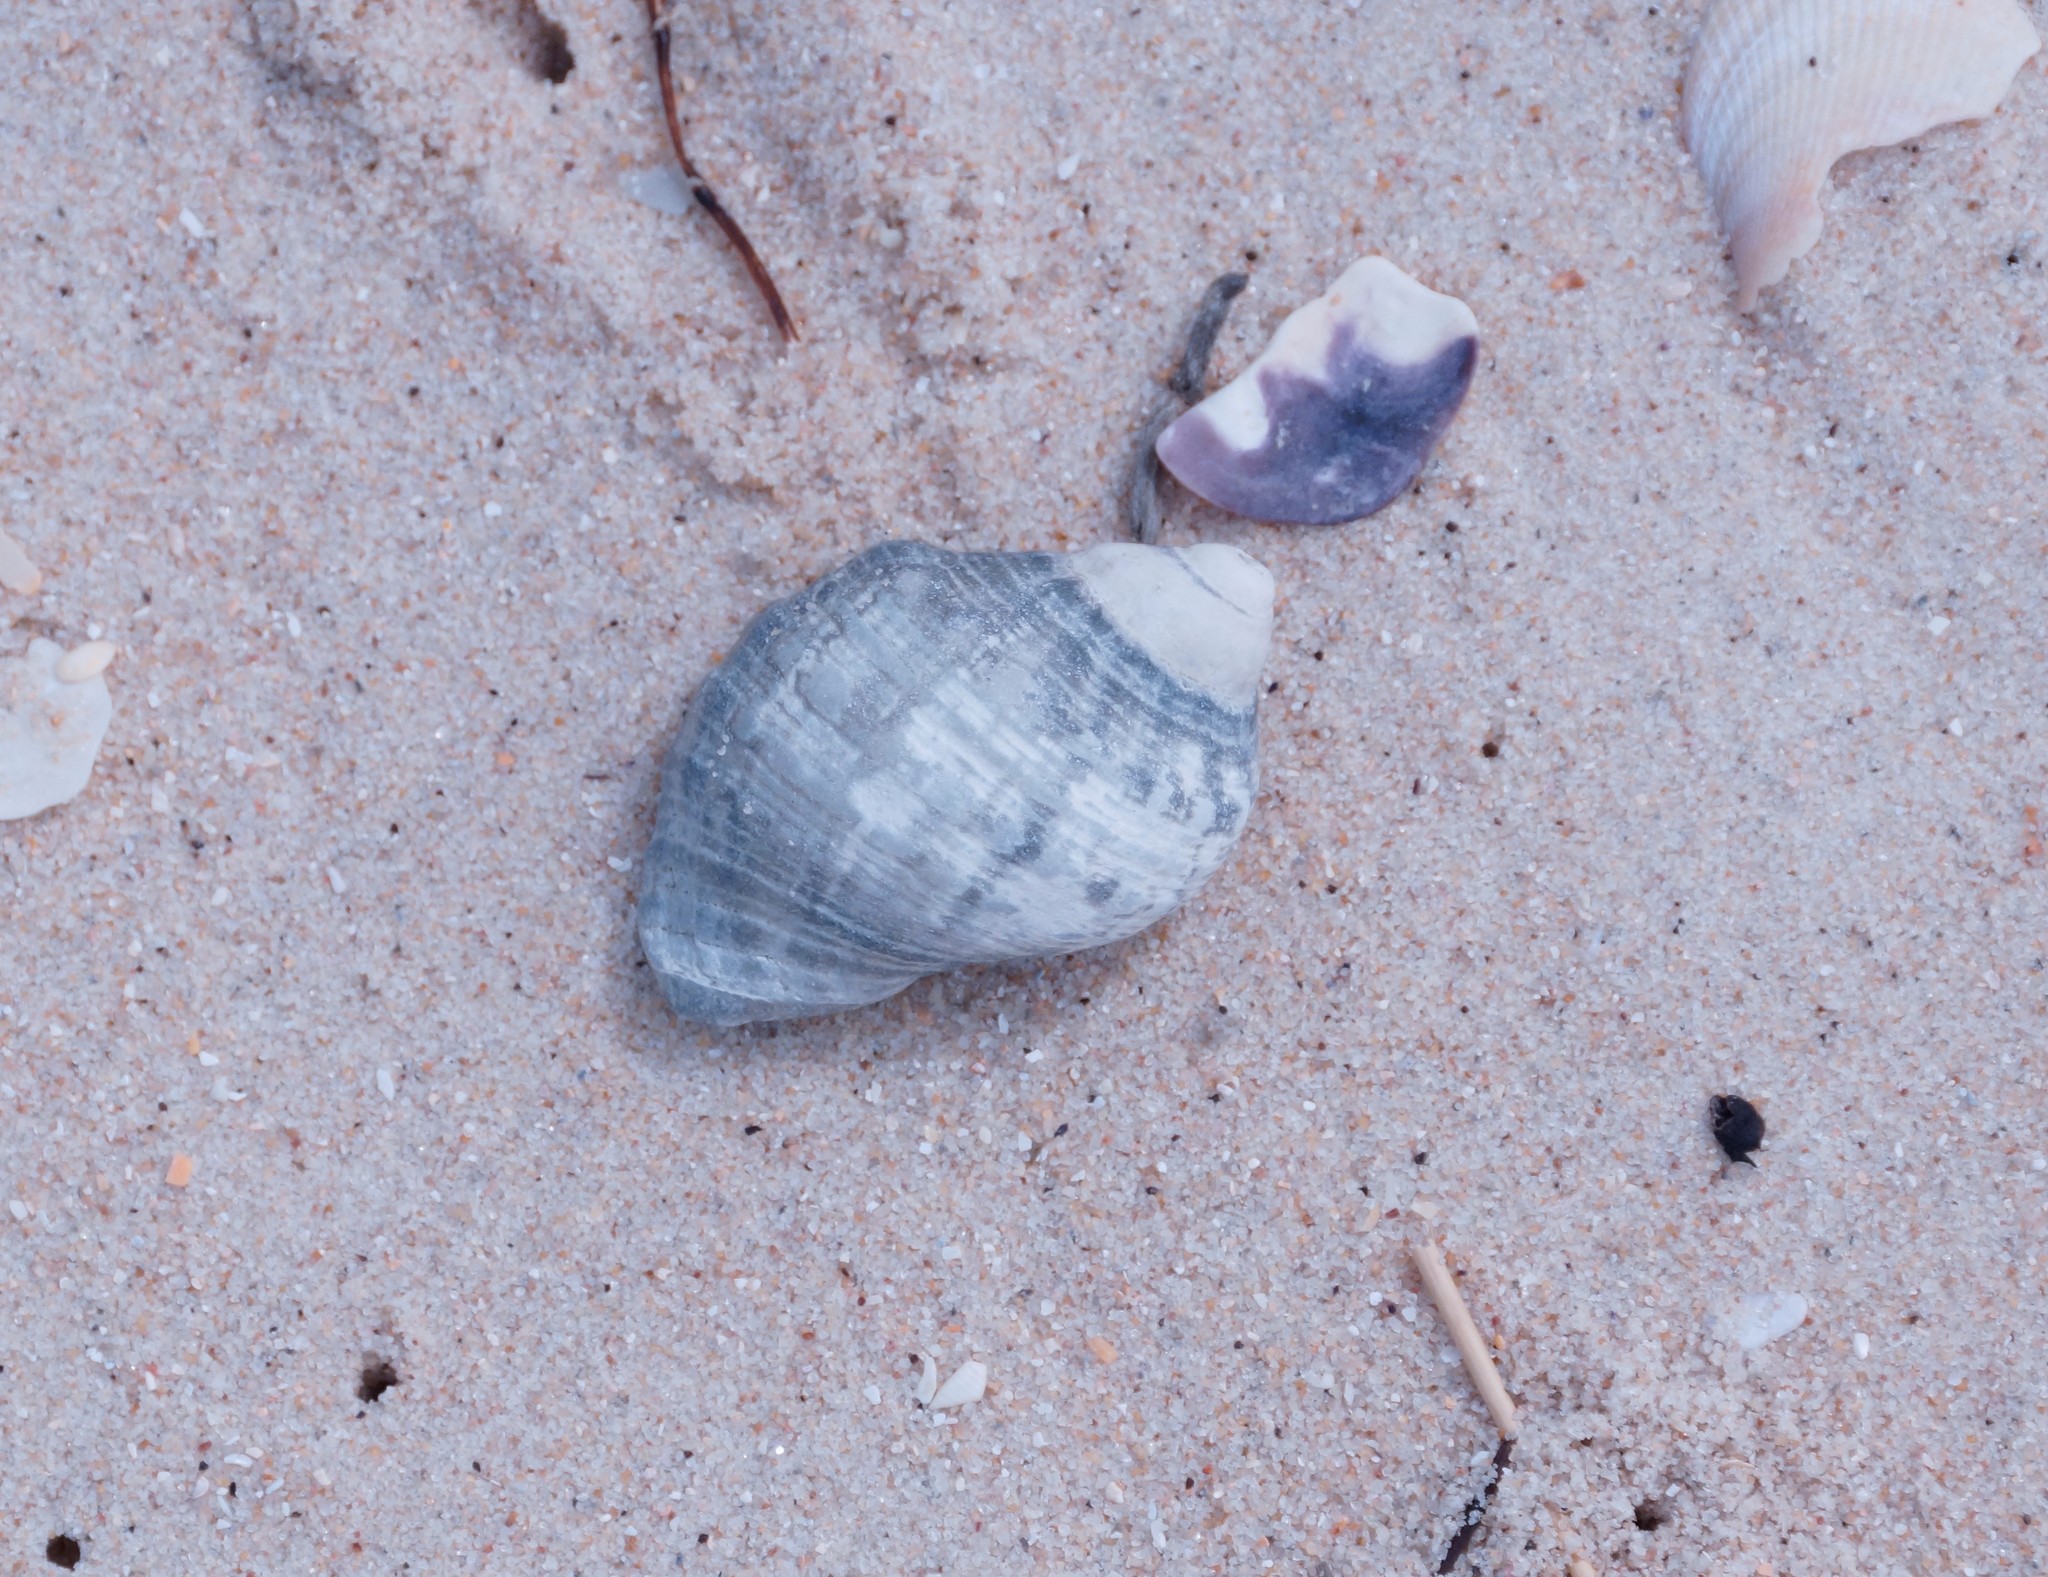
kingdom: Animalia
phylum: Mollusca
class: Gastropoda
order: Neogastropoda
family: Muricidae
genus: Dicathais
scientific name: Dicathais orbita
